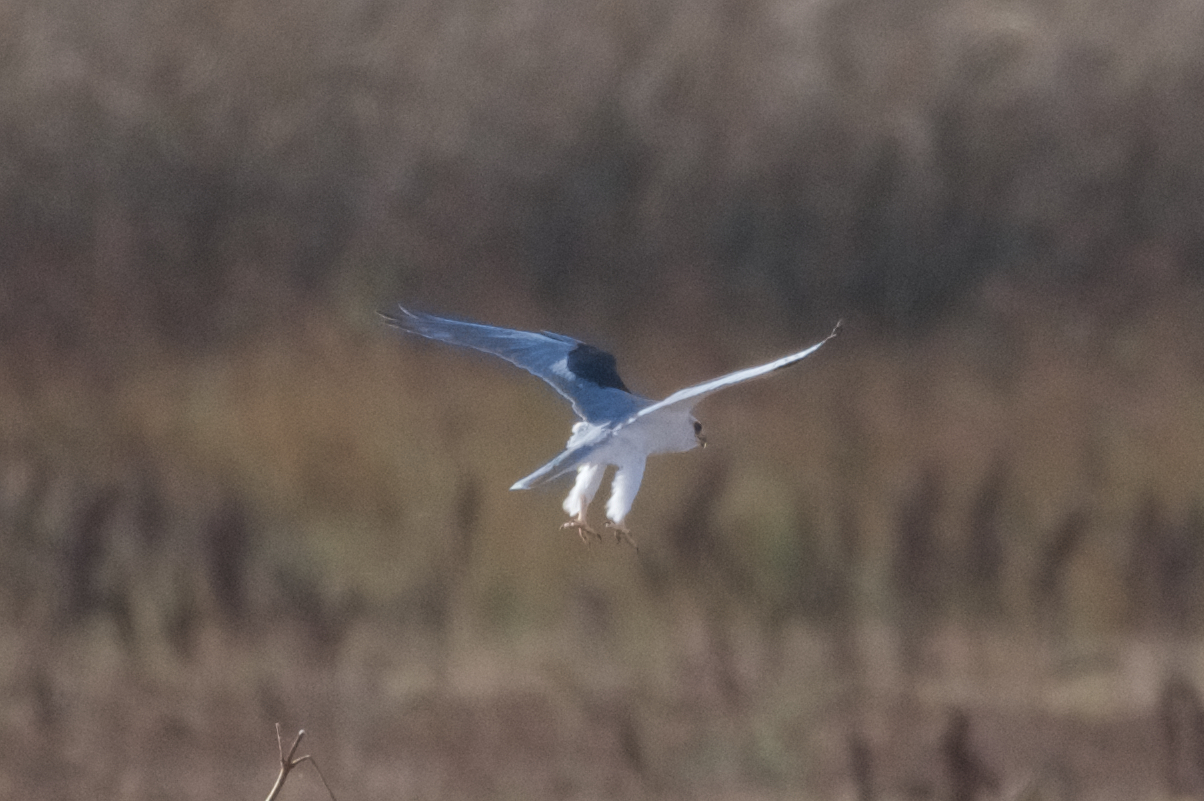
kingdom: Animalia
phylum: Chordata
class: Aves
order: Accipitriformes
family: Accipitridae
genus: Elanus
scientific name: Elanus leucurus
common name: White-tailed kite
